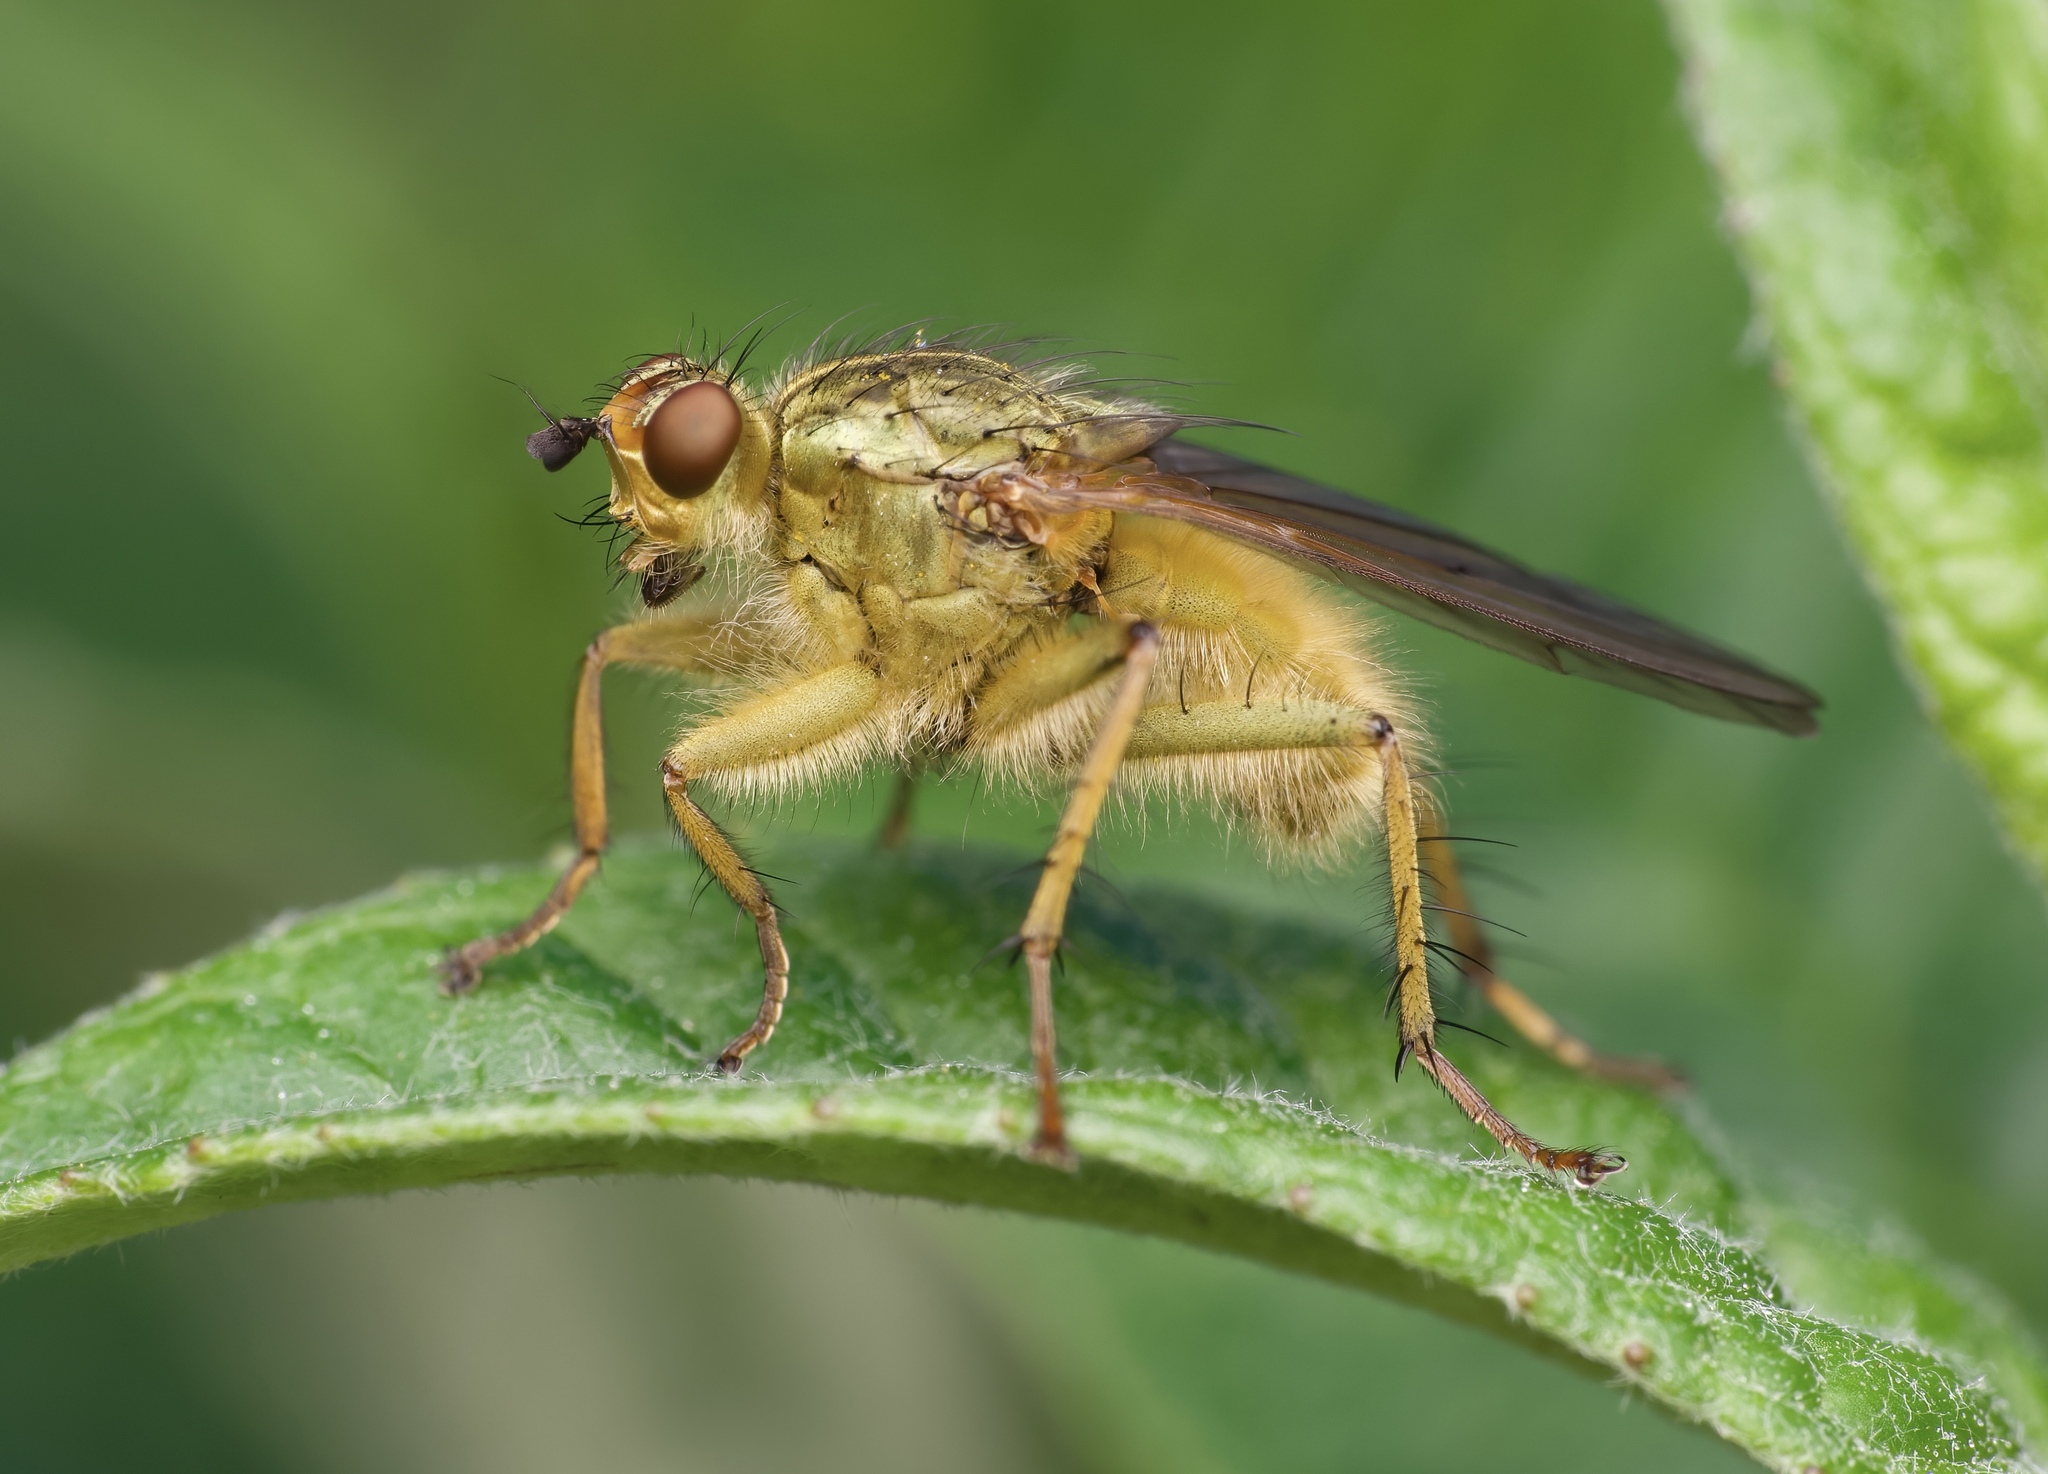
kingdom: Animalia
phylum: Arthropoda
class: Insecta
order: Diptera
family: Scathophagidae
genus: Scathophaga
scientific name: Scathophaga stercoraria
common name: Yellow dung fly
